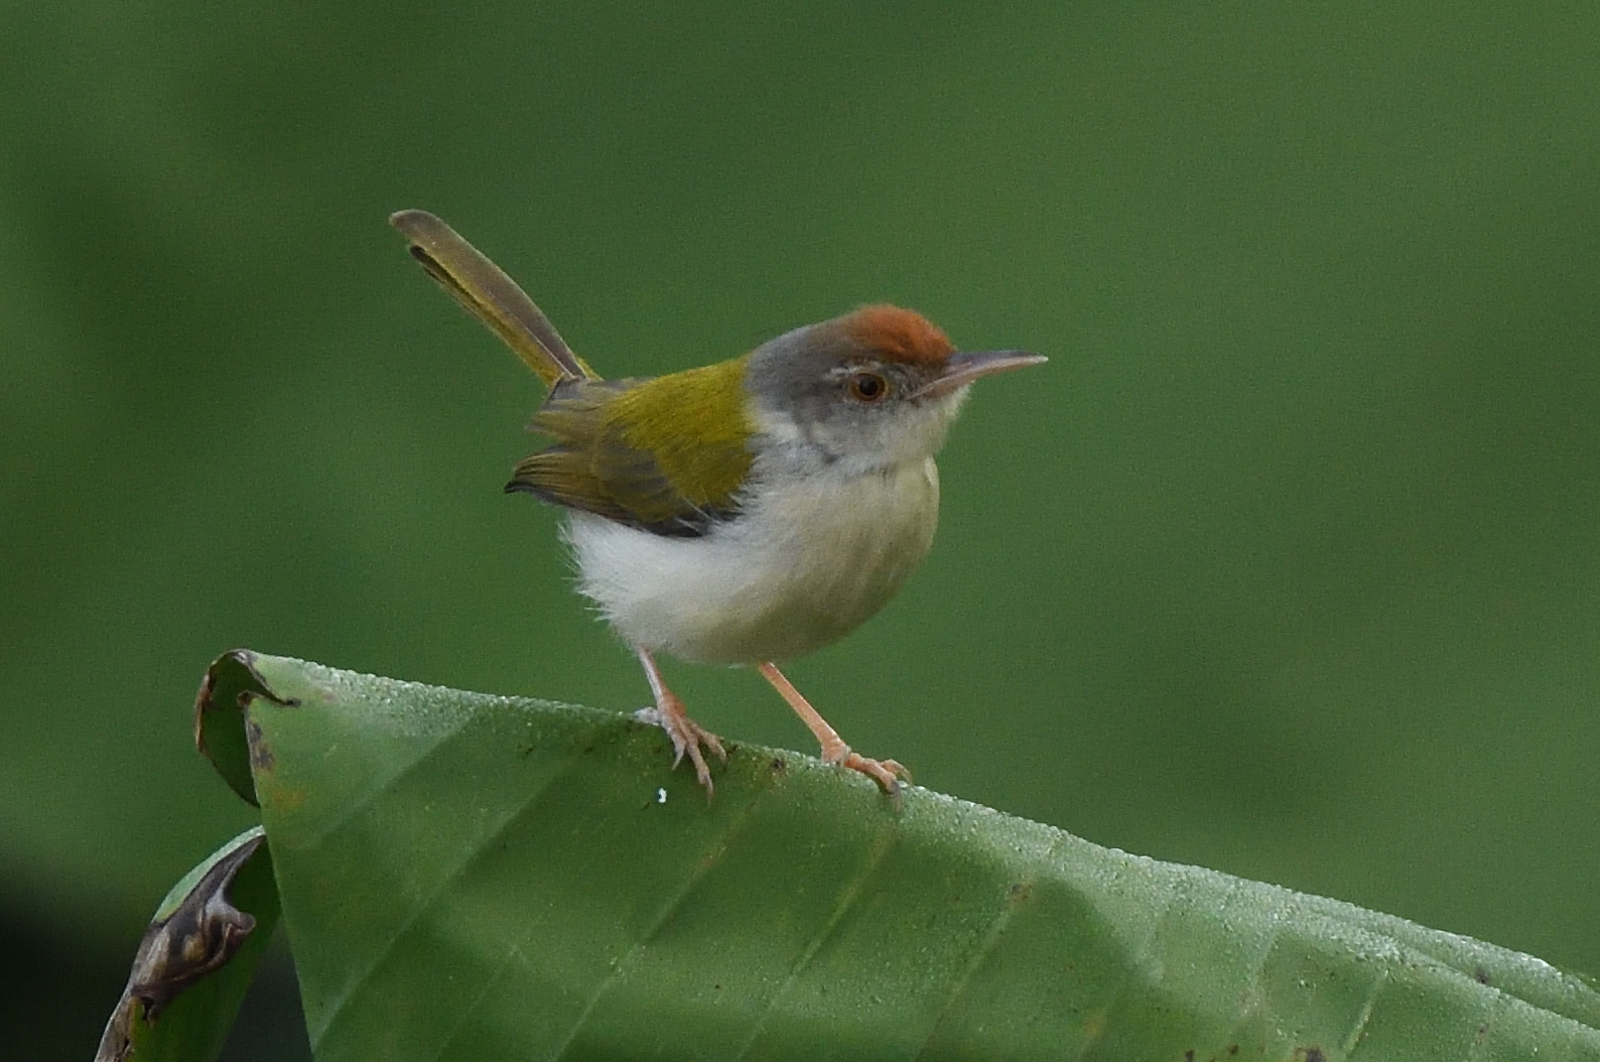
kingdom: Animalia
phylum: Chordata
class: Aves
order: Passeriformes
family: Cisticolidae
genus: Orthotomus
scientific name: Orthotomus sutorius
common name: Common tailorbird
